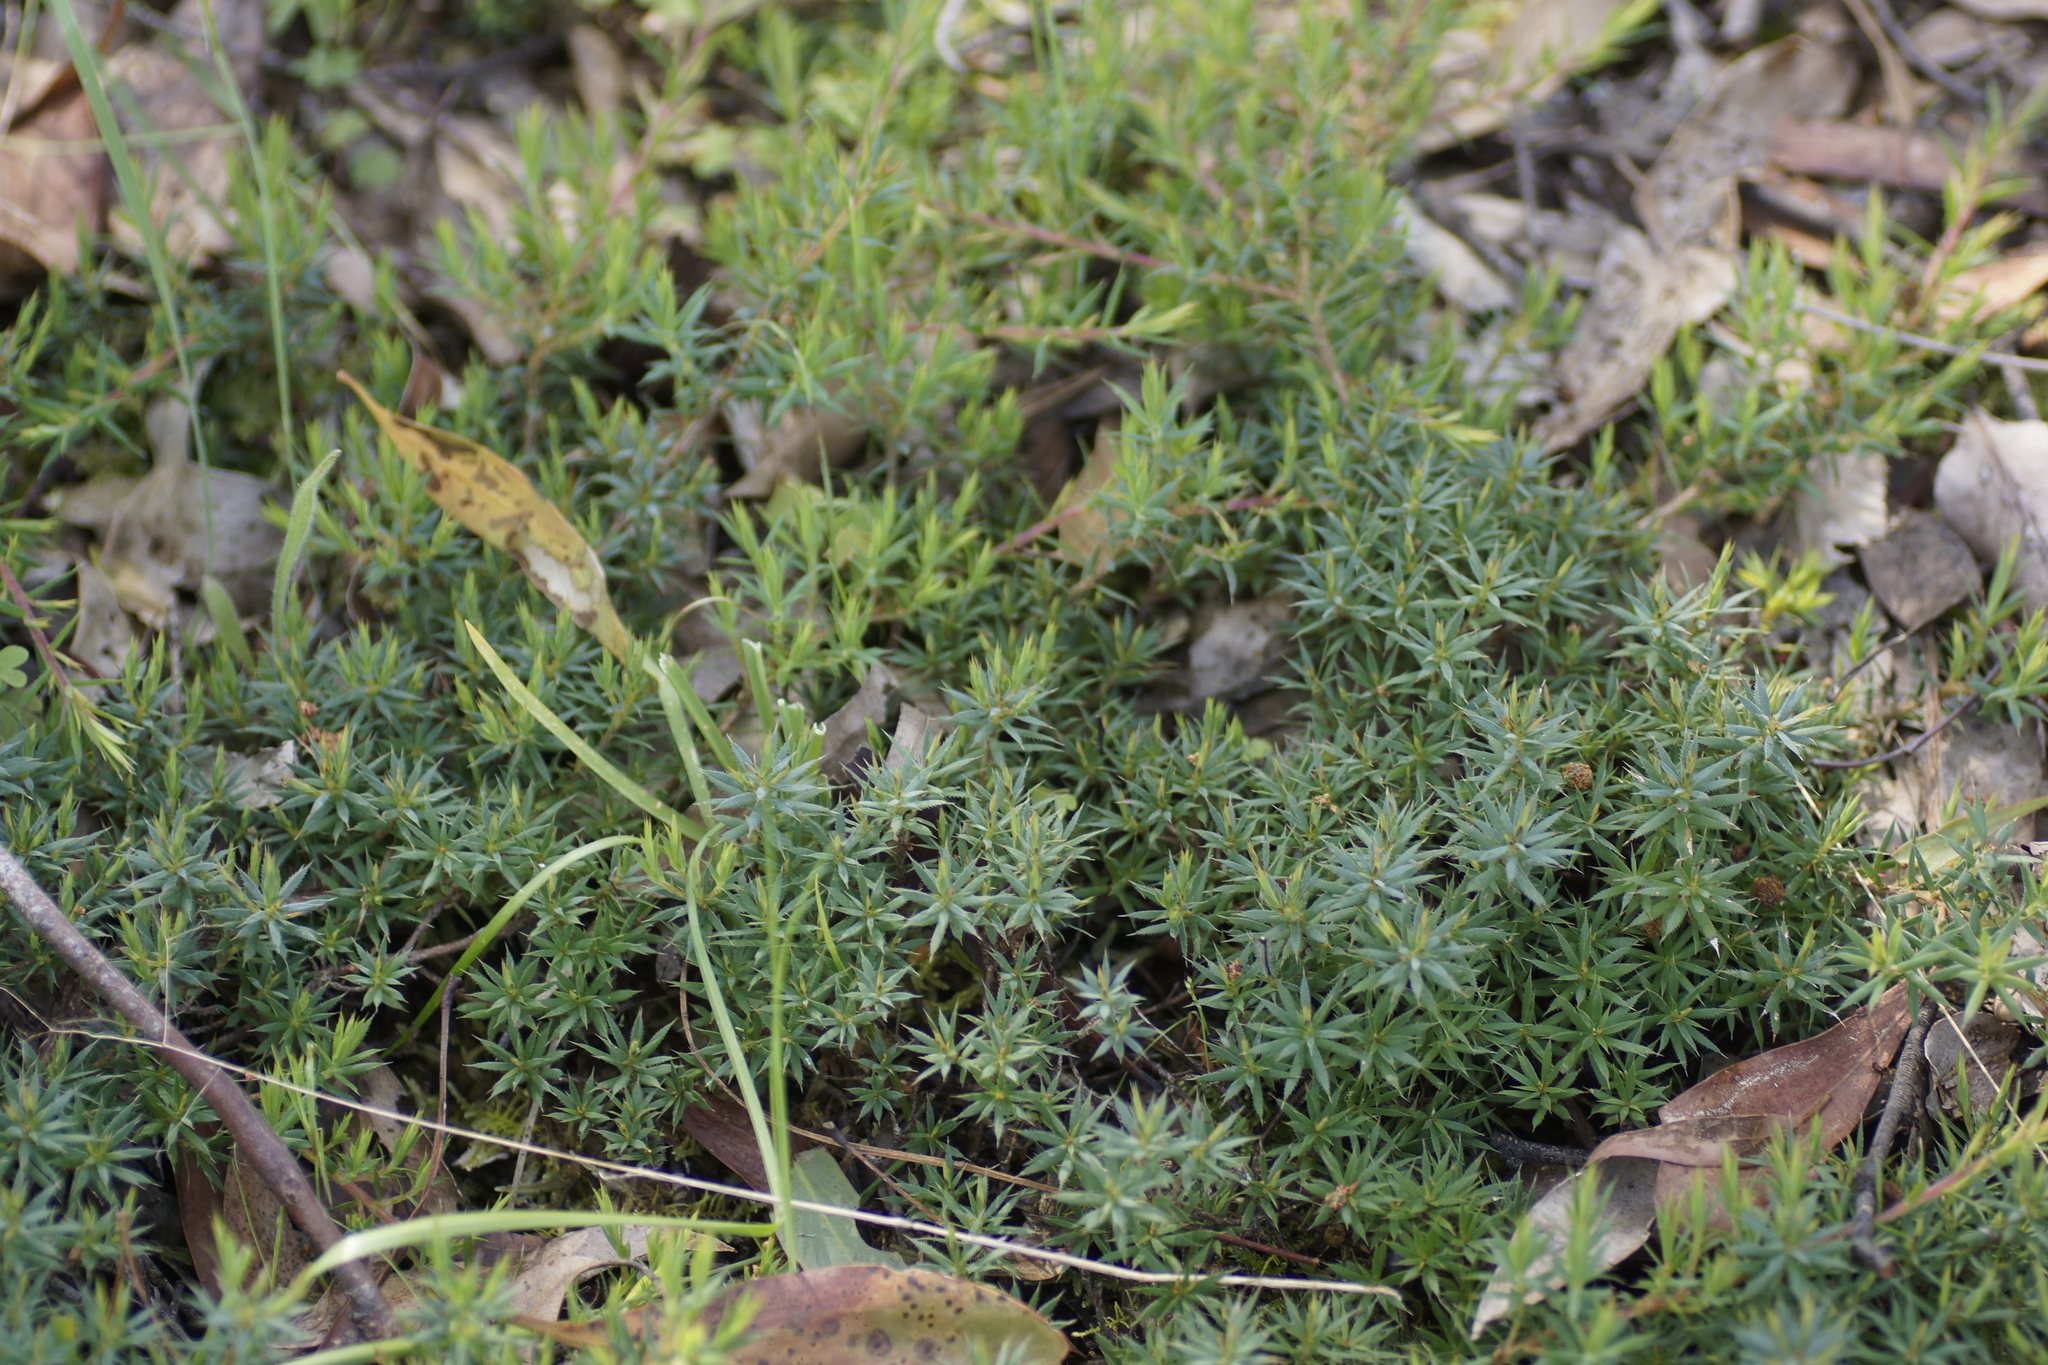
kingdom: Plantae
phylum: Tracheophyta
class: Magnoliopsida
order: Ericales
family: Ericaceae
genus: Styphelia
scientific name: Styphelia humifusa
